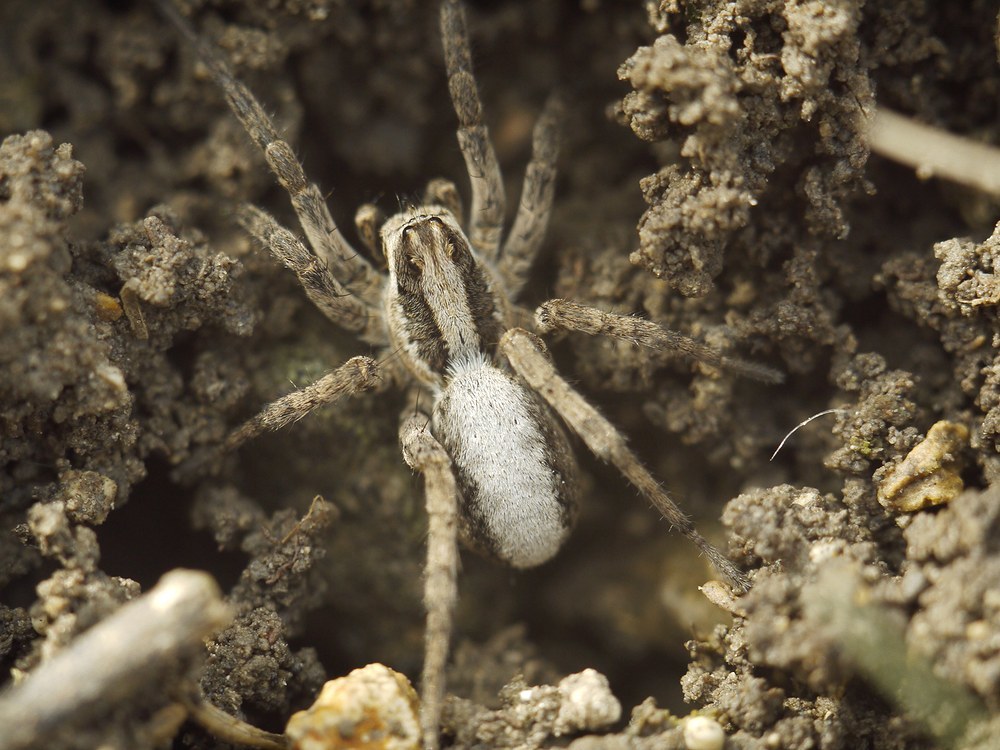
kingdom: Animalia
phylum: Arthropoda
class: Arachnida
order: Araneae
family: Lycosidae
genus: Alopecosa
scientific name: Alopecosa cursor
